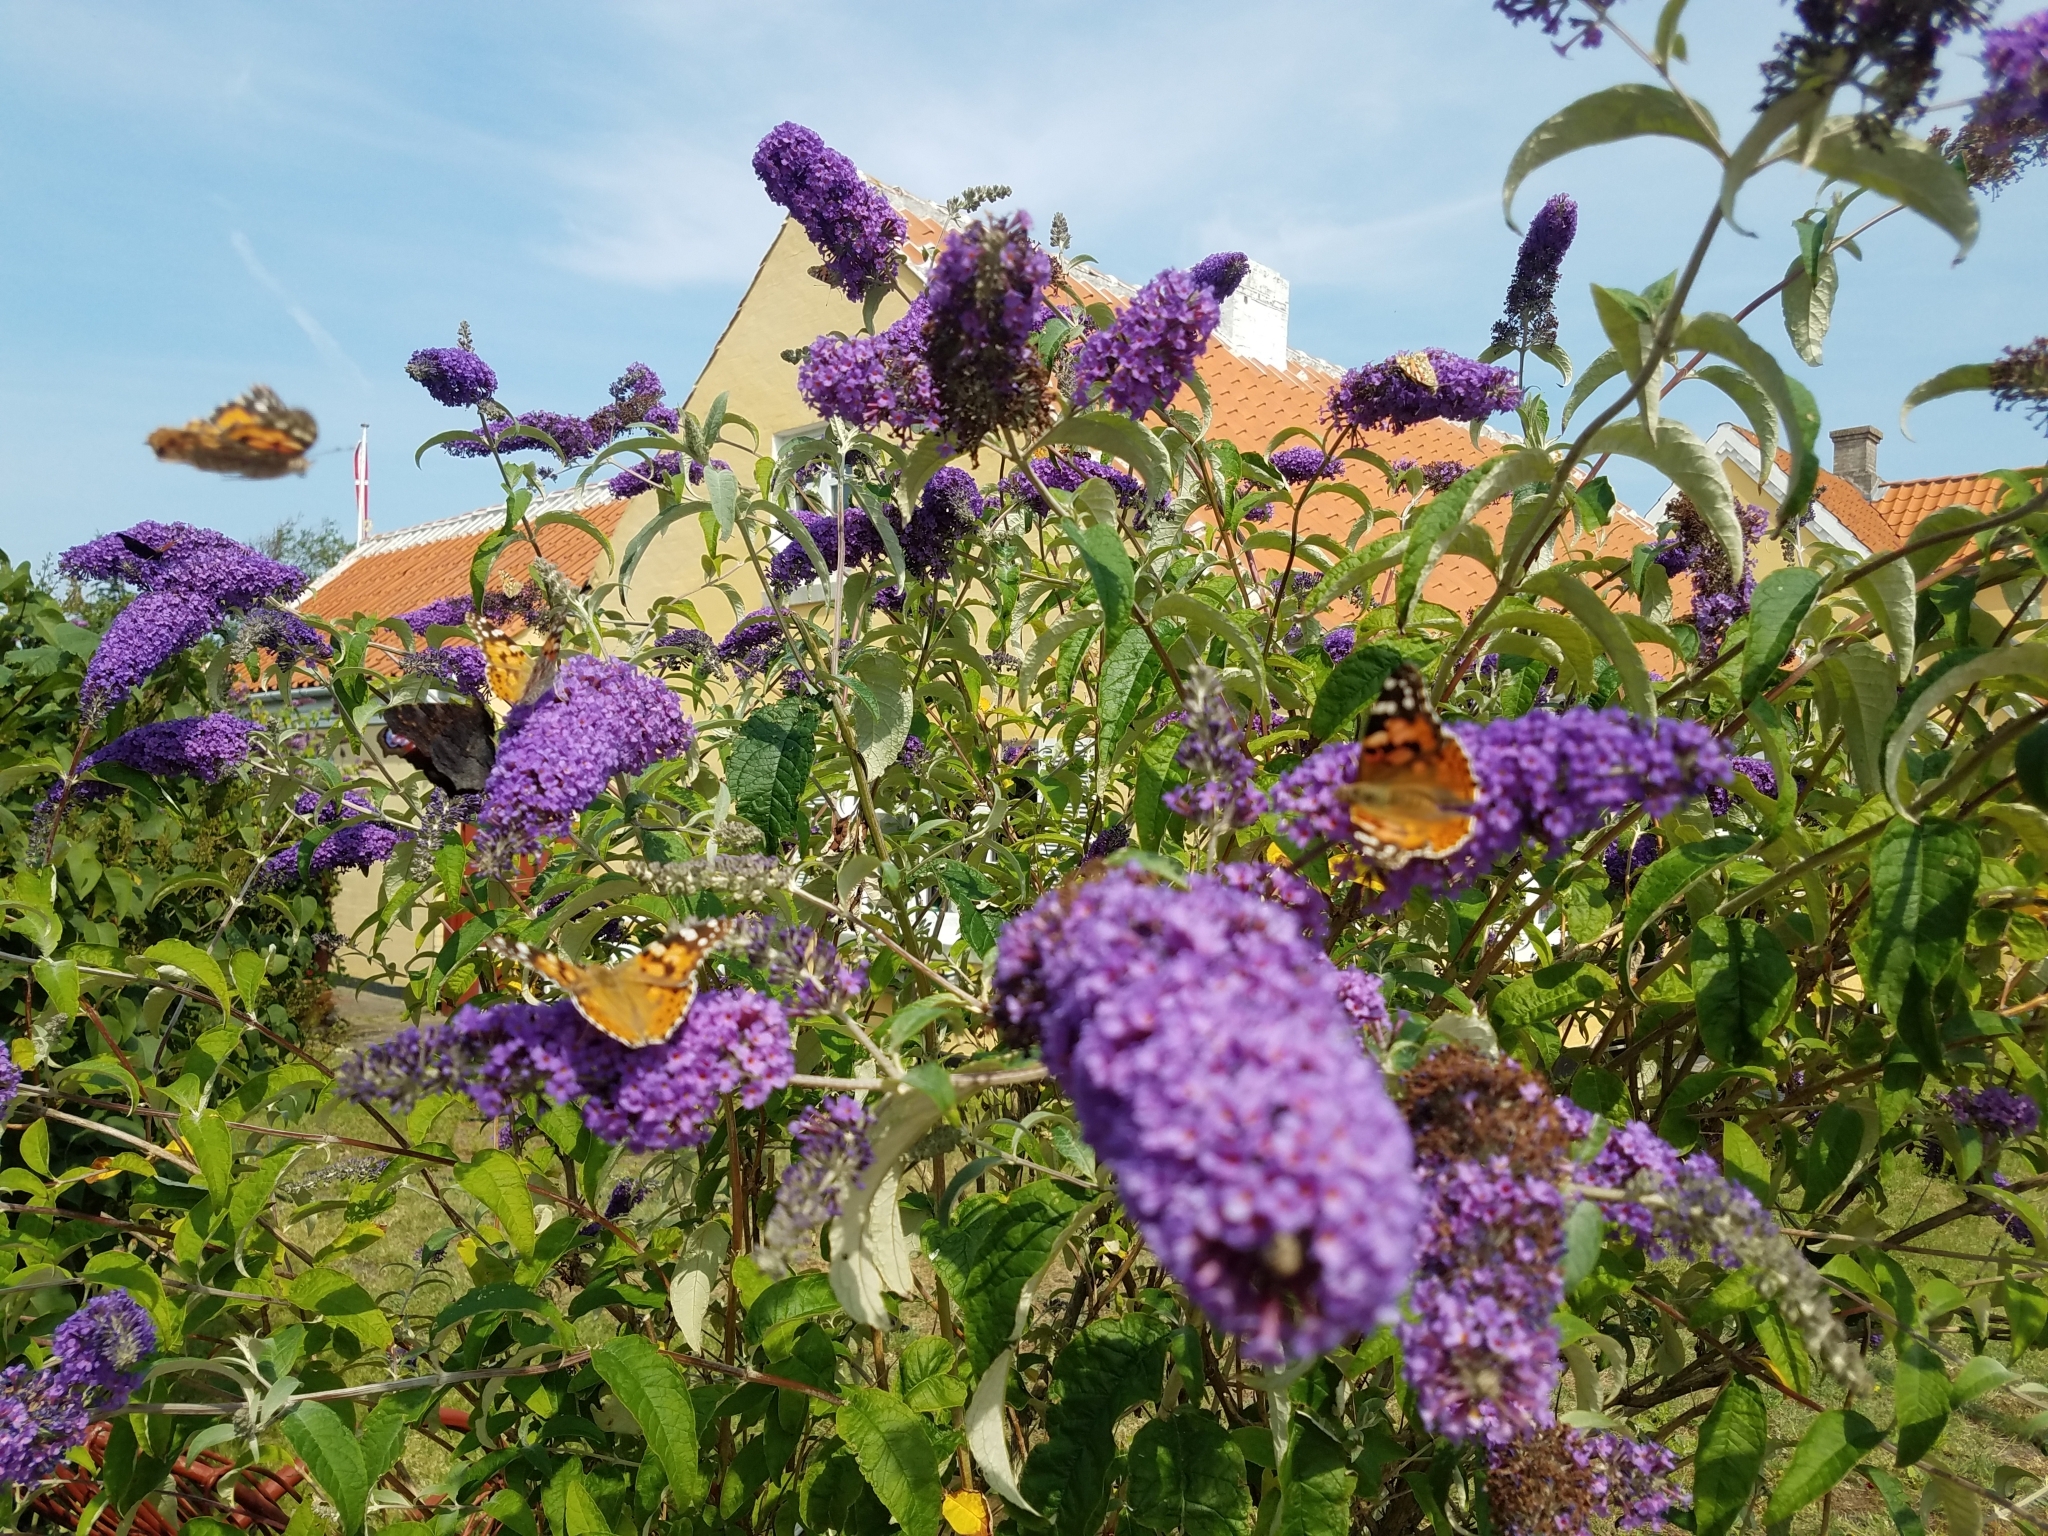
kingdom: Animalia
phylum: Arthropoda
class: Insecta
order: Lepidoptera
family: Nymphalidae
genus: Vanessa
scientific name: Vanessa cardui
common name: Painted lady
